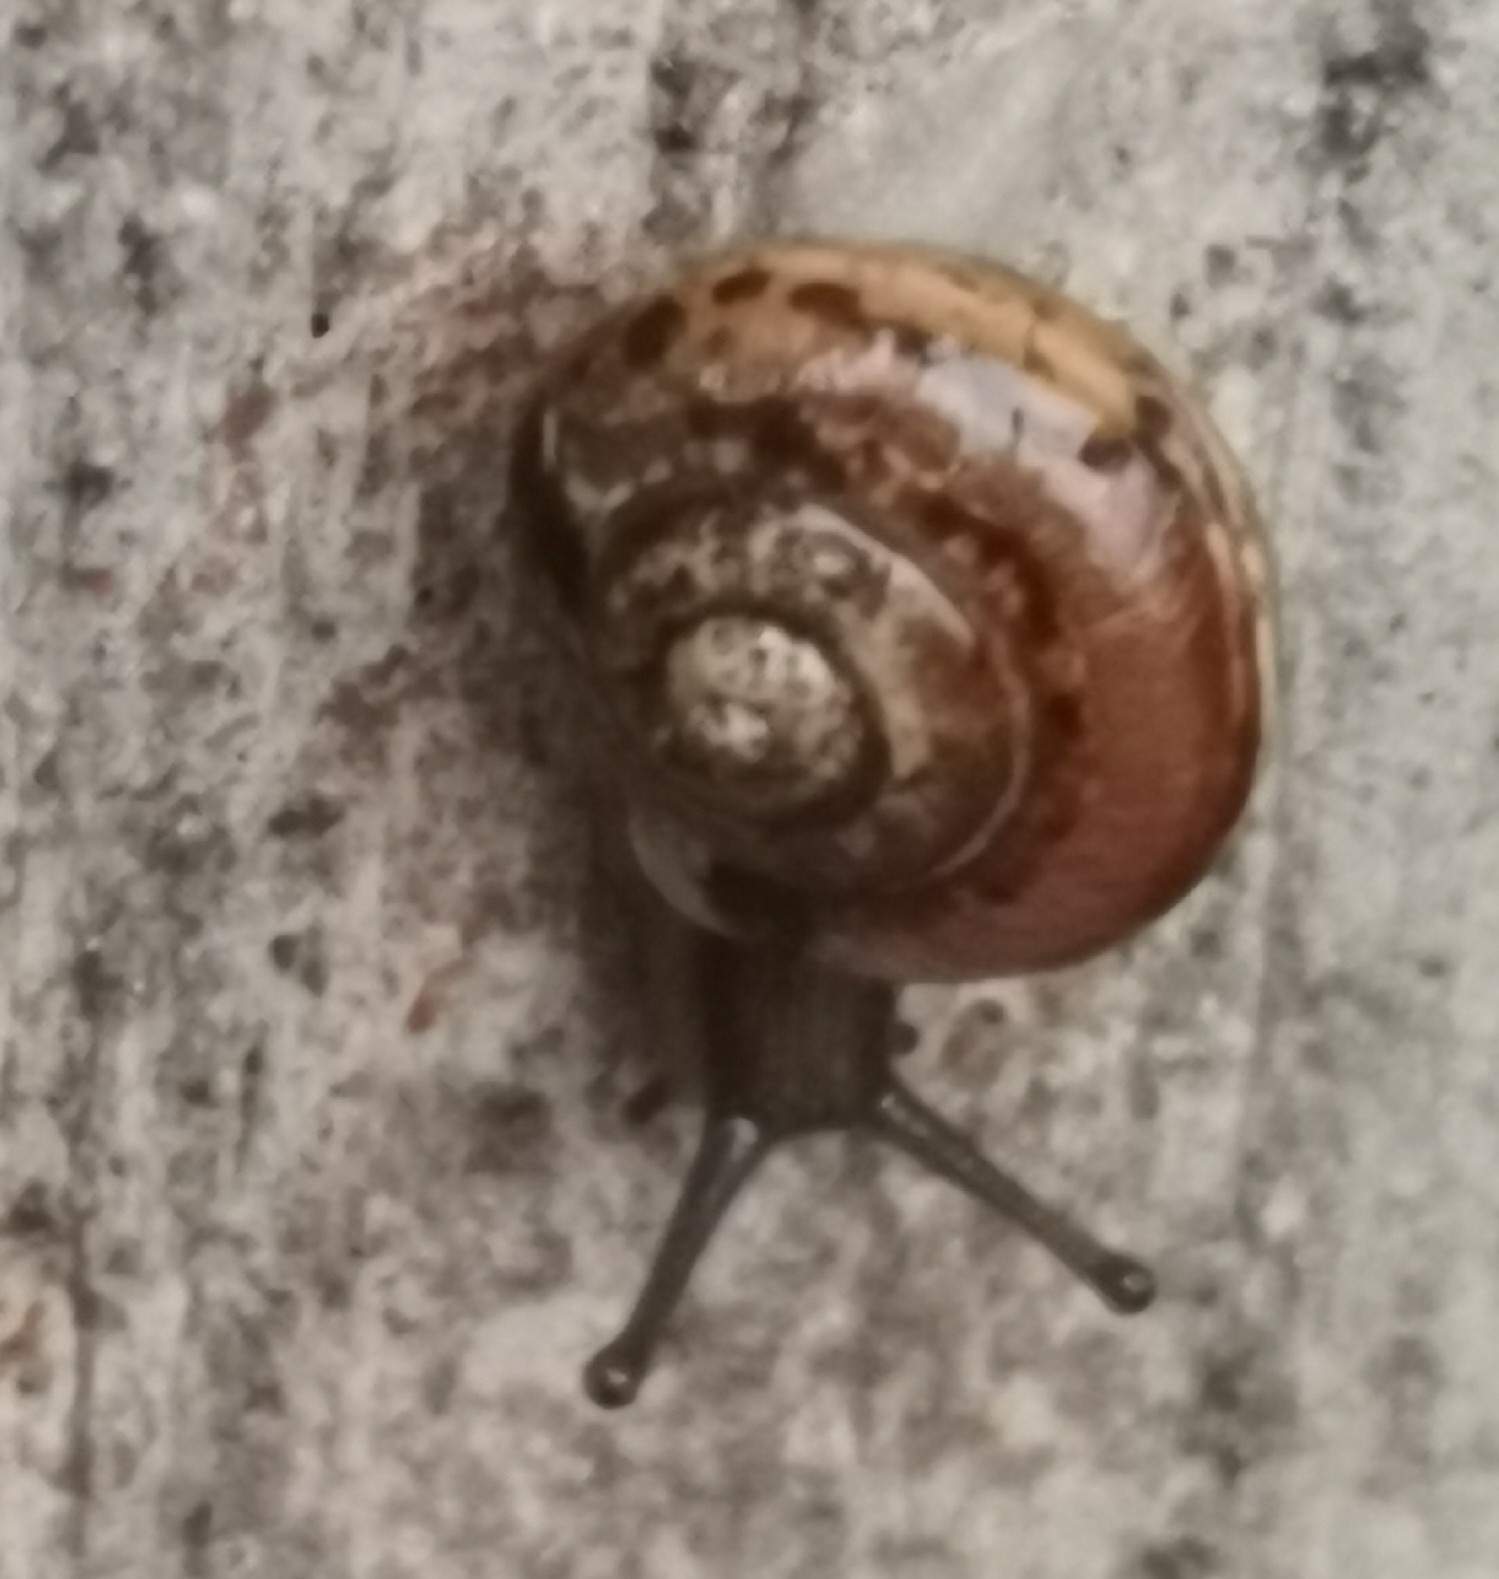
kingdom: Animalia
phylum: Mollusca
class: Gastropoda
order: Stylommatophora
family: Helicidae
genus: Arianta
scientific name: Arianta arbustorum
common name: Copse snail
